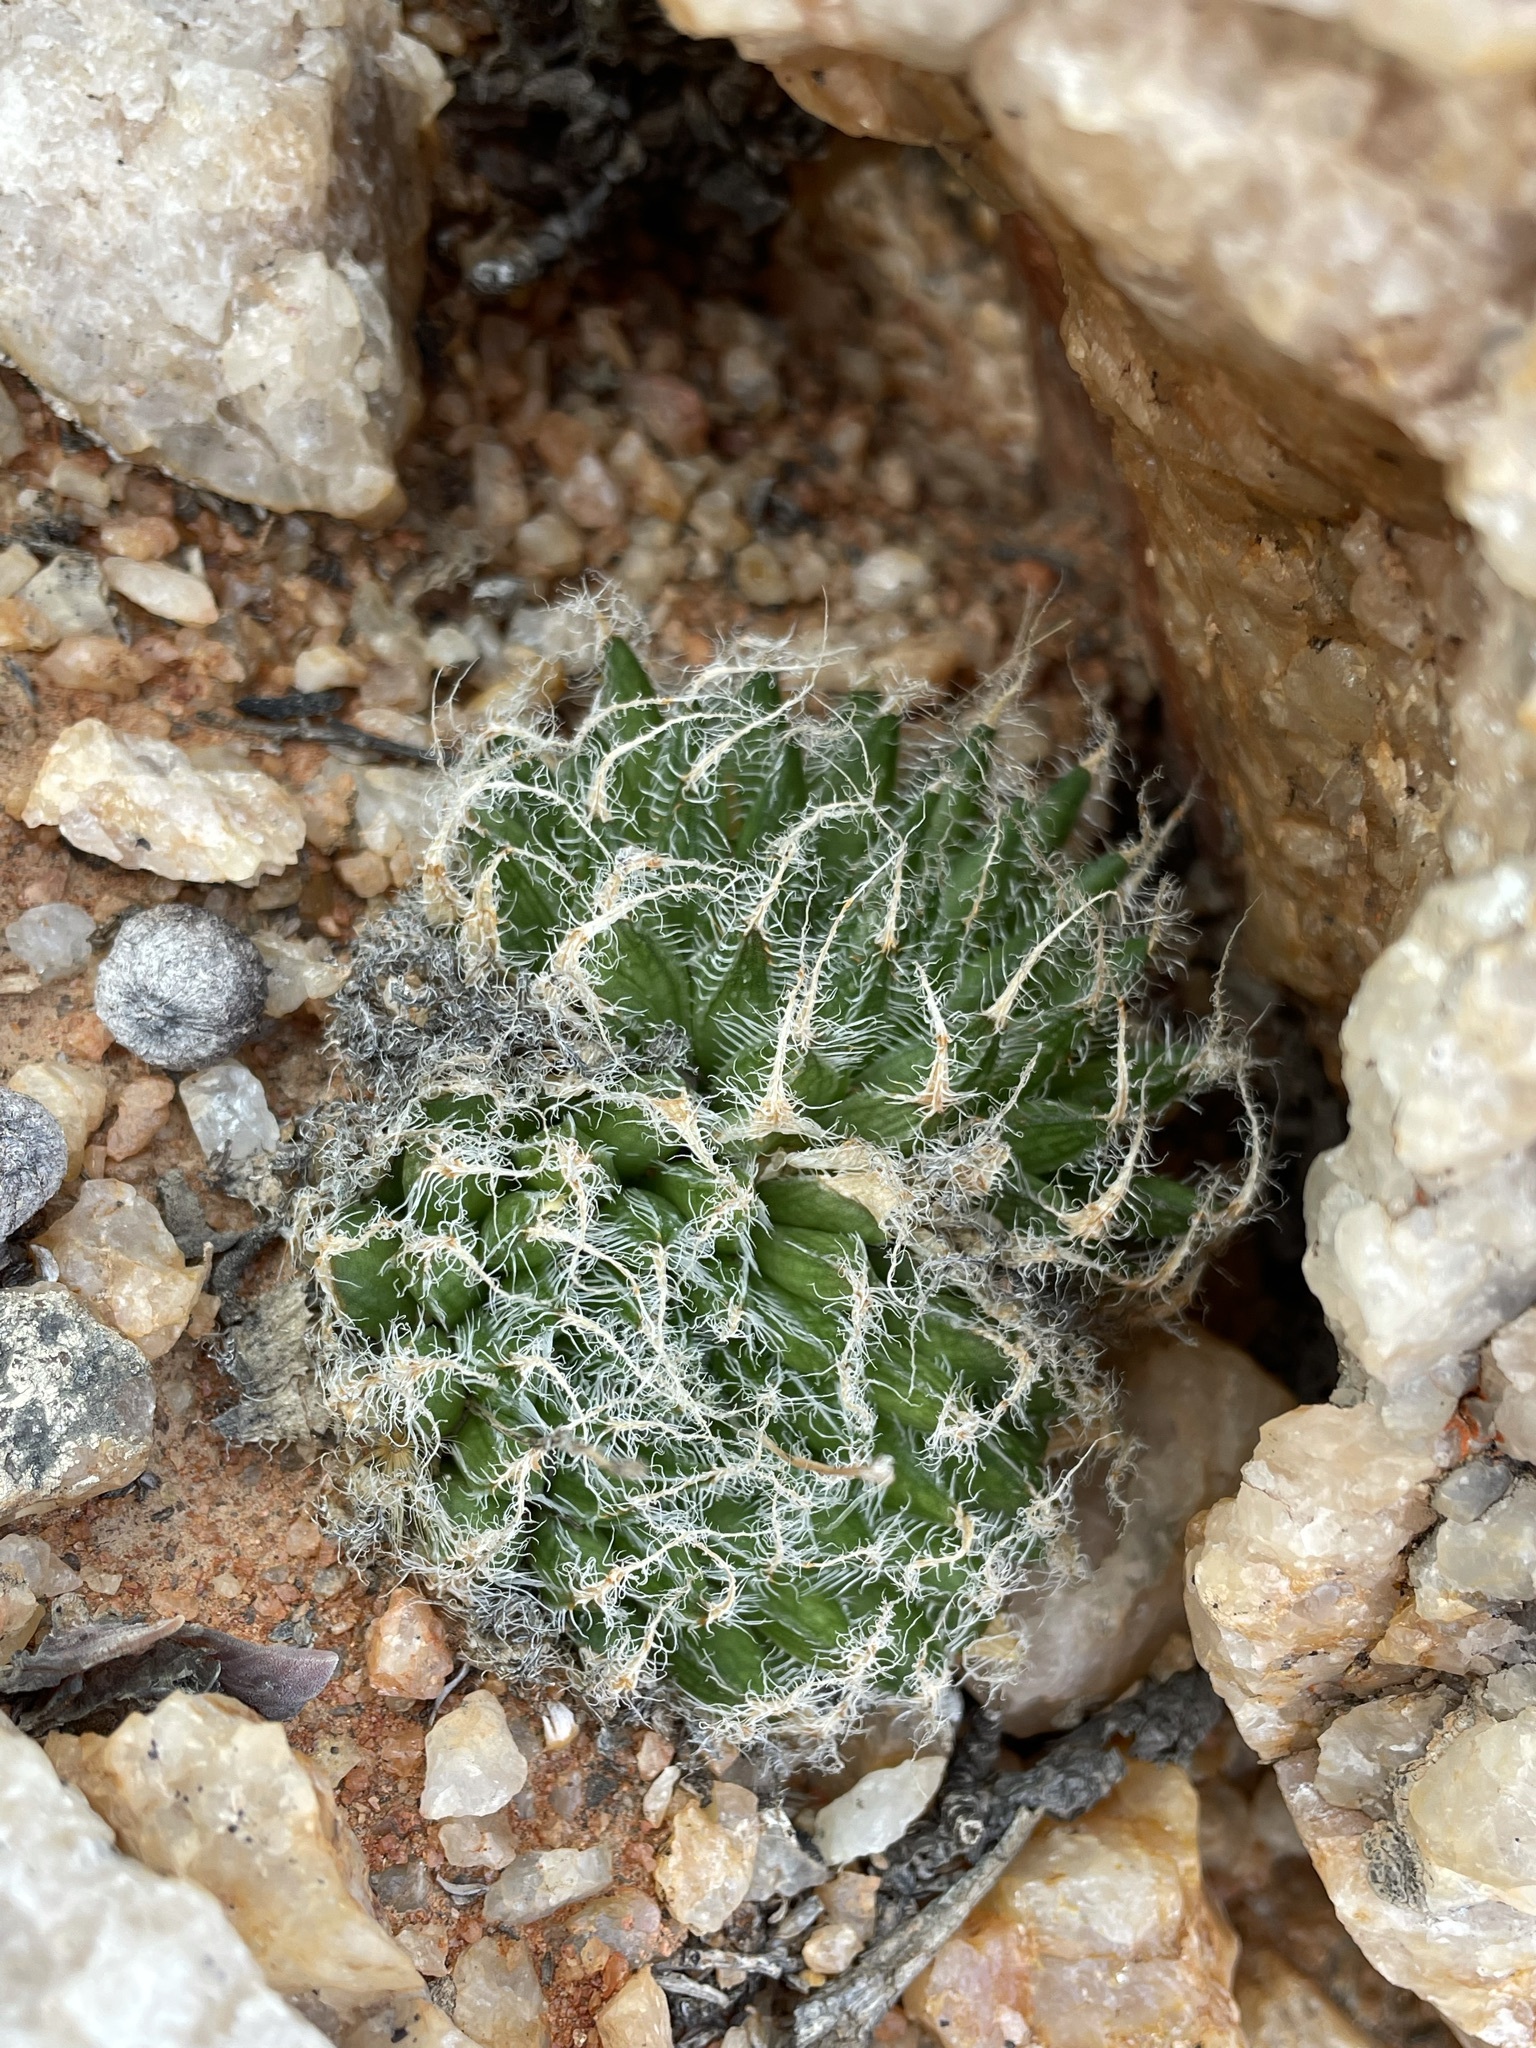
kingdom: Plantae
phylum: Tracheophyta
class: Liliopsida
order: Asparagales
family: Asphodelaceae
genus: Haworthia
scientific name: Haworthia arachnoidea
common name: Cobweb-aloe
